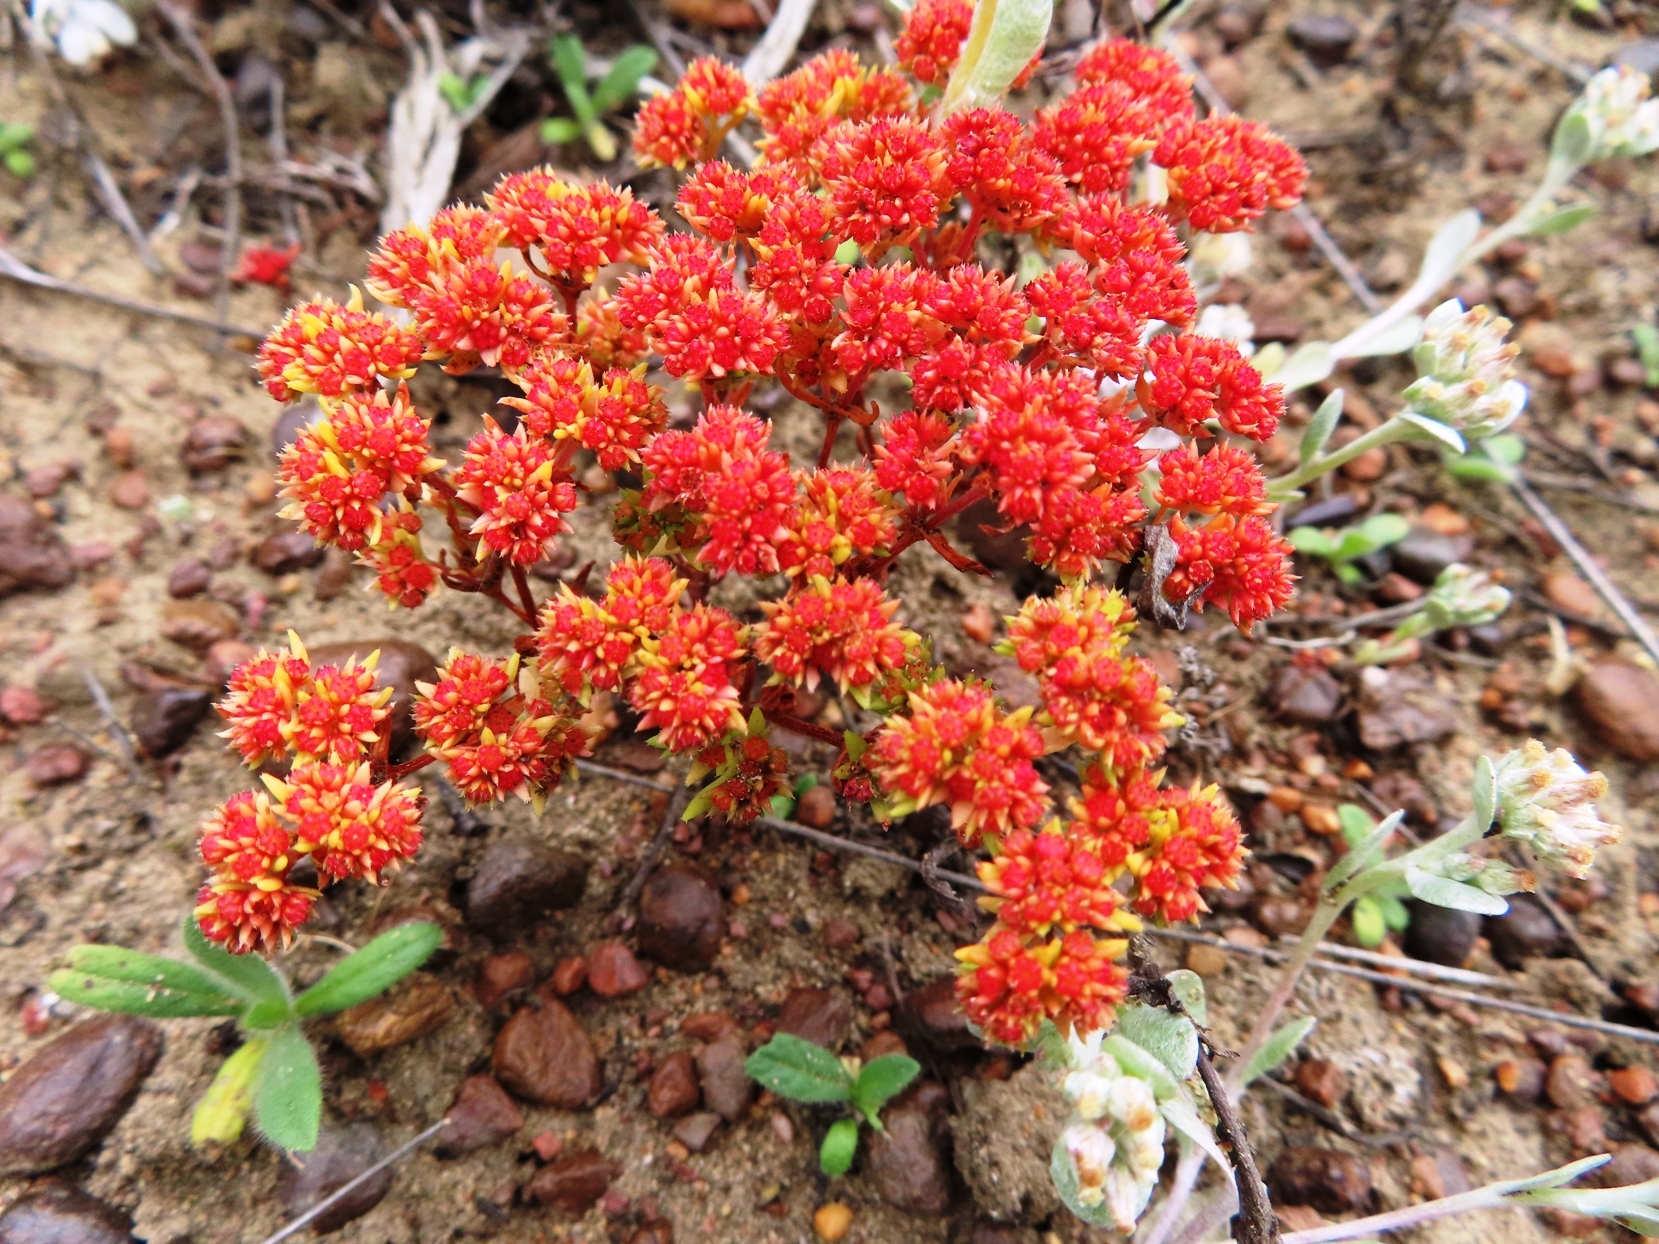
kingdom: Plantae
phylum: Tracheophyta
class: Magnoliopsida
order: Saxifragales
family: Crassulaceae
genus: Crassula
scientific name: Crassula glomerata
